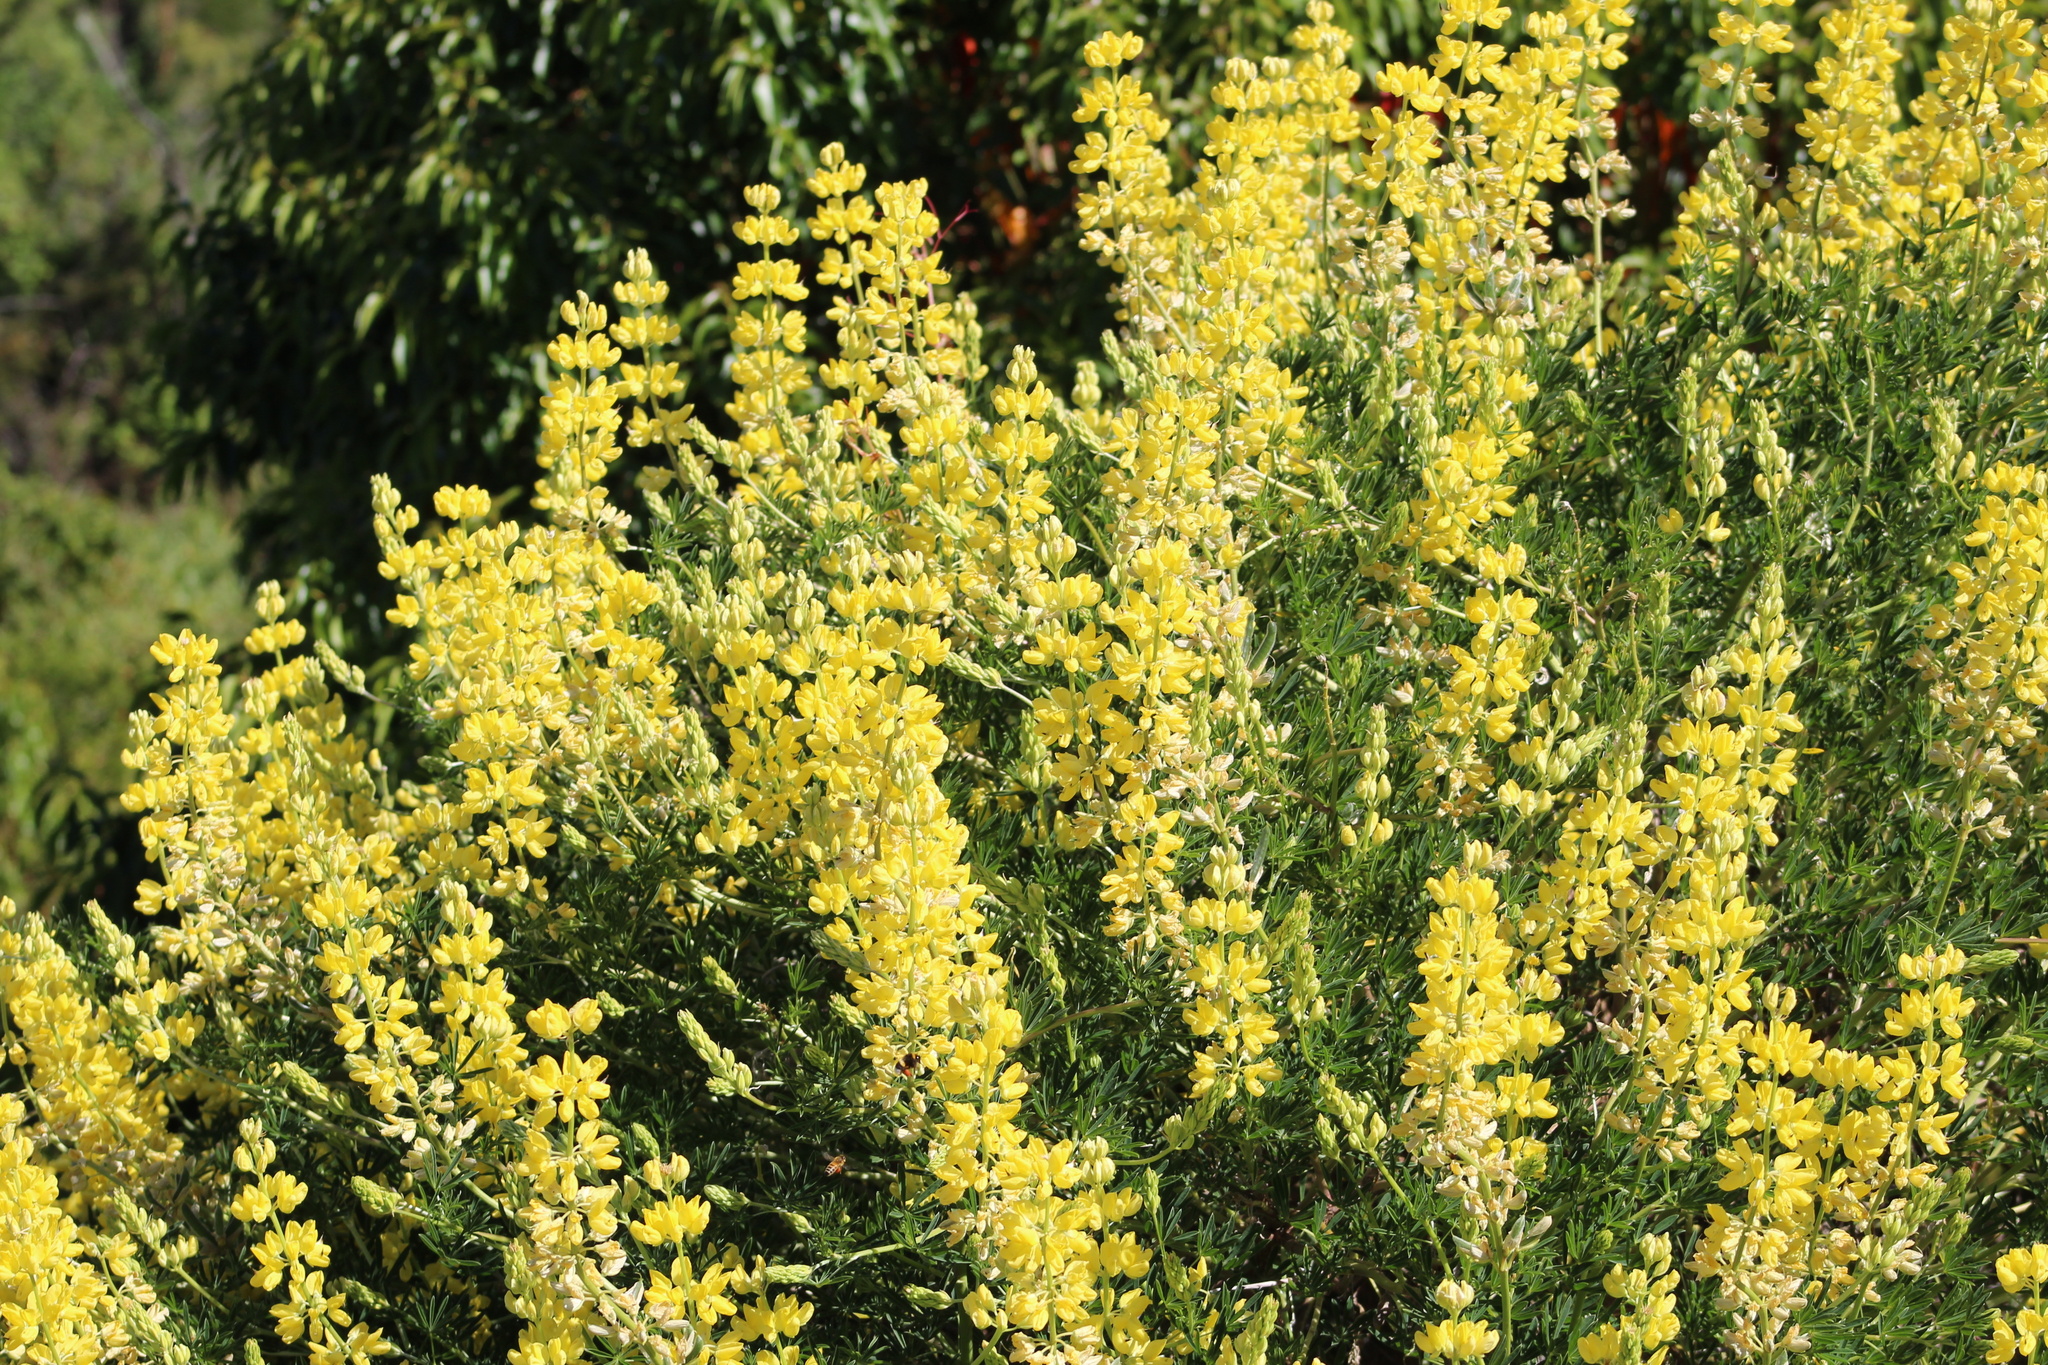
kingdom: Plantae
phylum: Tracheophyta
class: Magnoliopsida
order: Fabales
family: Fabaceae
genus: Lupinus
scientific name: Lupinus arboreus
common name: Yellow bush lupine
